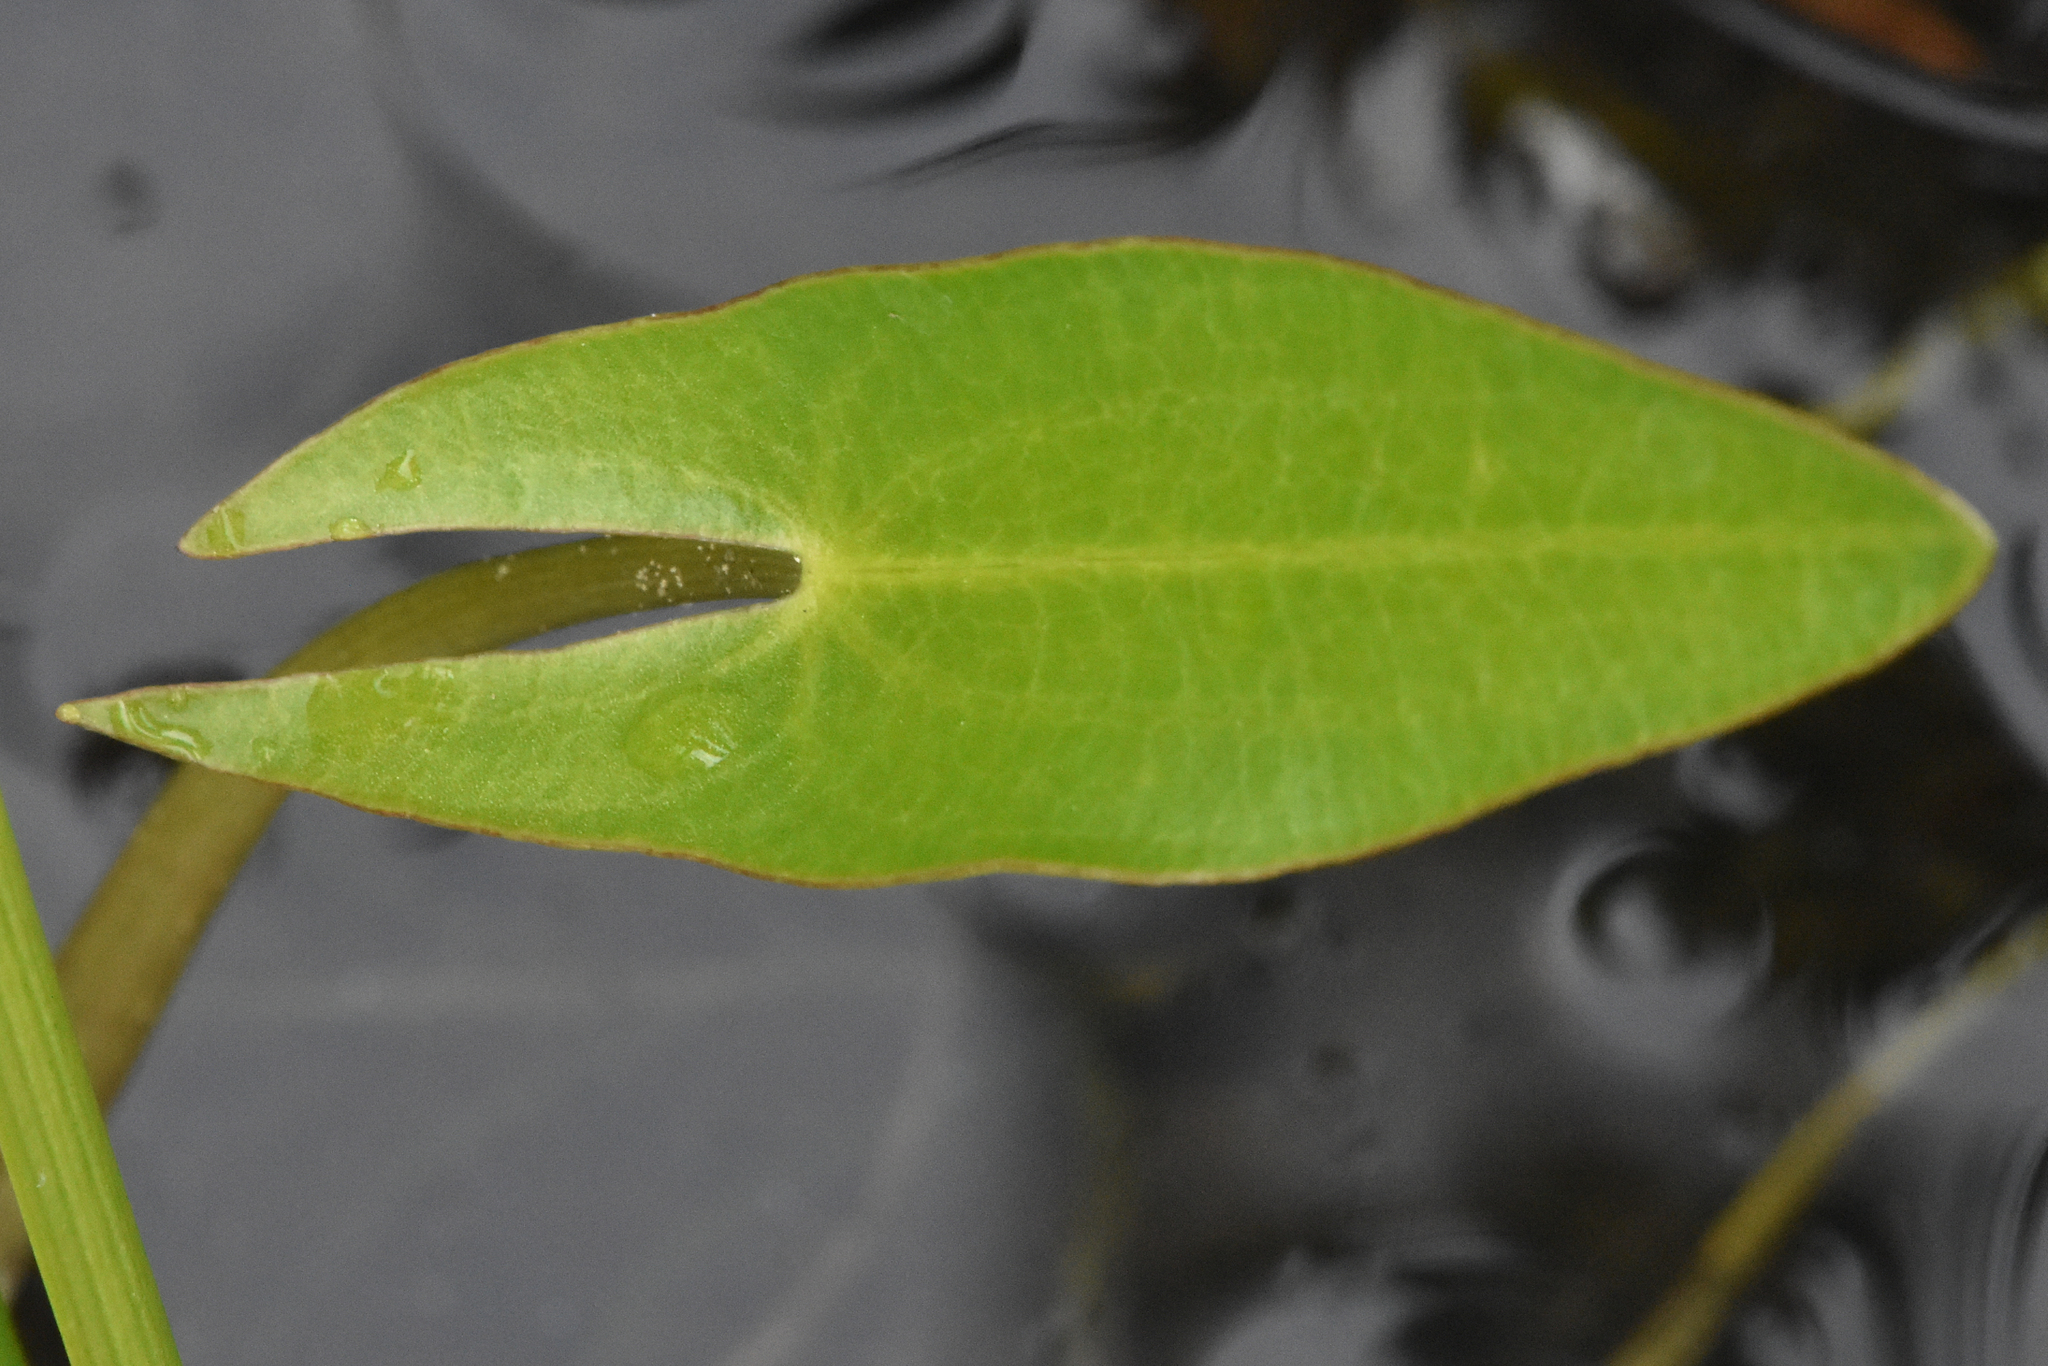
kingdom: Plantae
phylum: Tracheophyta
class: Liliopsida
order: Alismatales
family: Alismataceae
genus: Sagittaria
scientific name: Sagittaria cuneata
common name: Northern arrowhead
